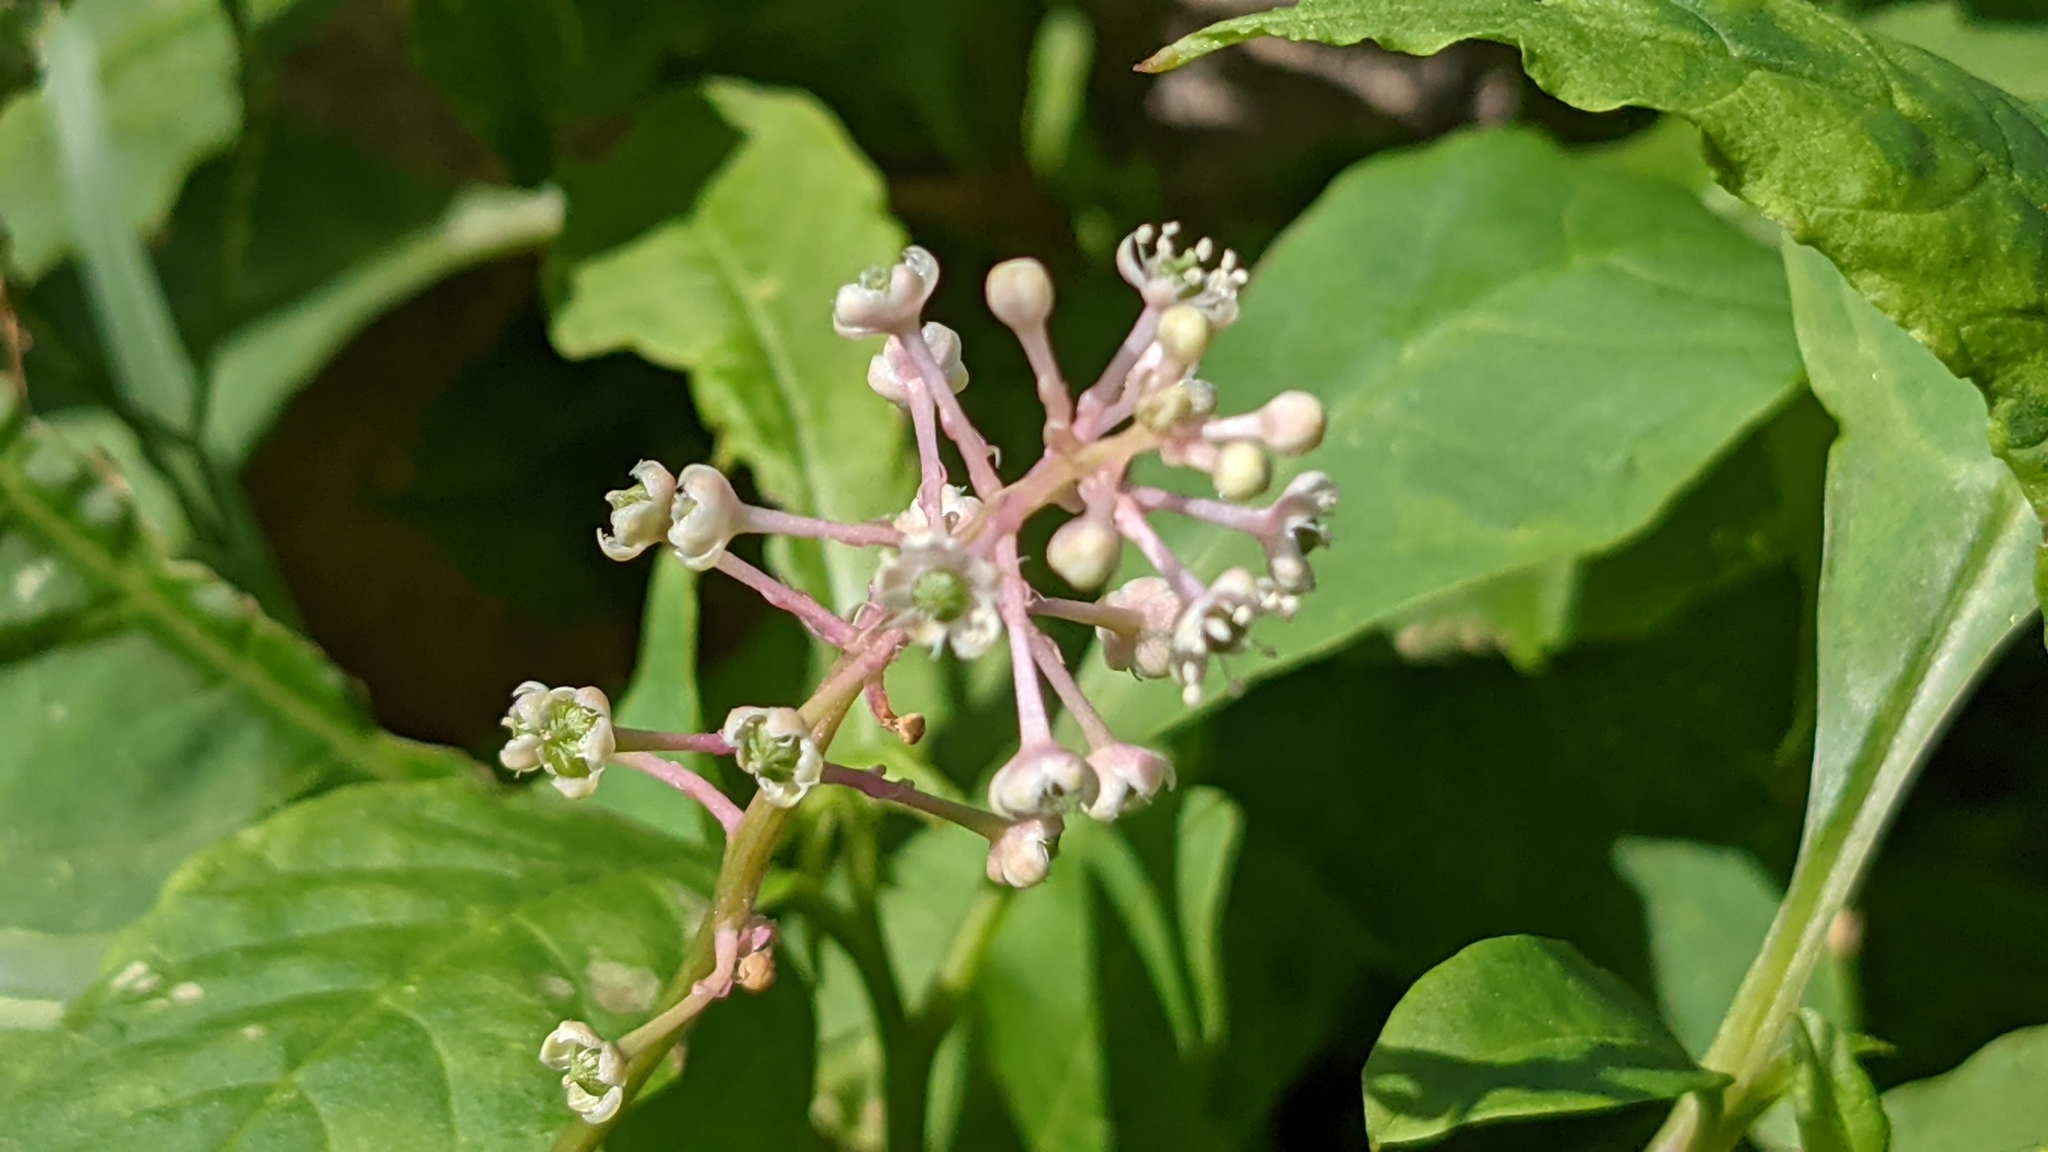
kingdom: Plantae
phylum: Tracheophyta
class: Magnoliopsida
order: Caryophyllales
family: Phytolaccaceae
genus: Phytolacca
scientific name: Phytolacca americana
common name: American pokeweed
